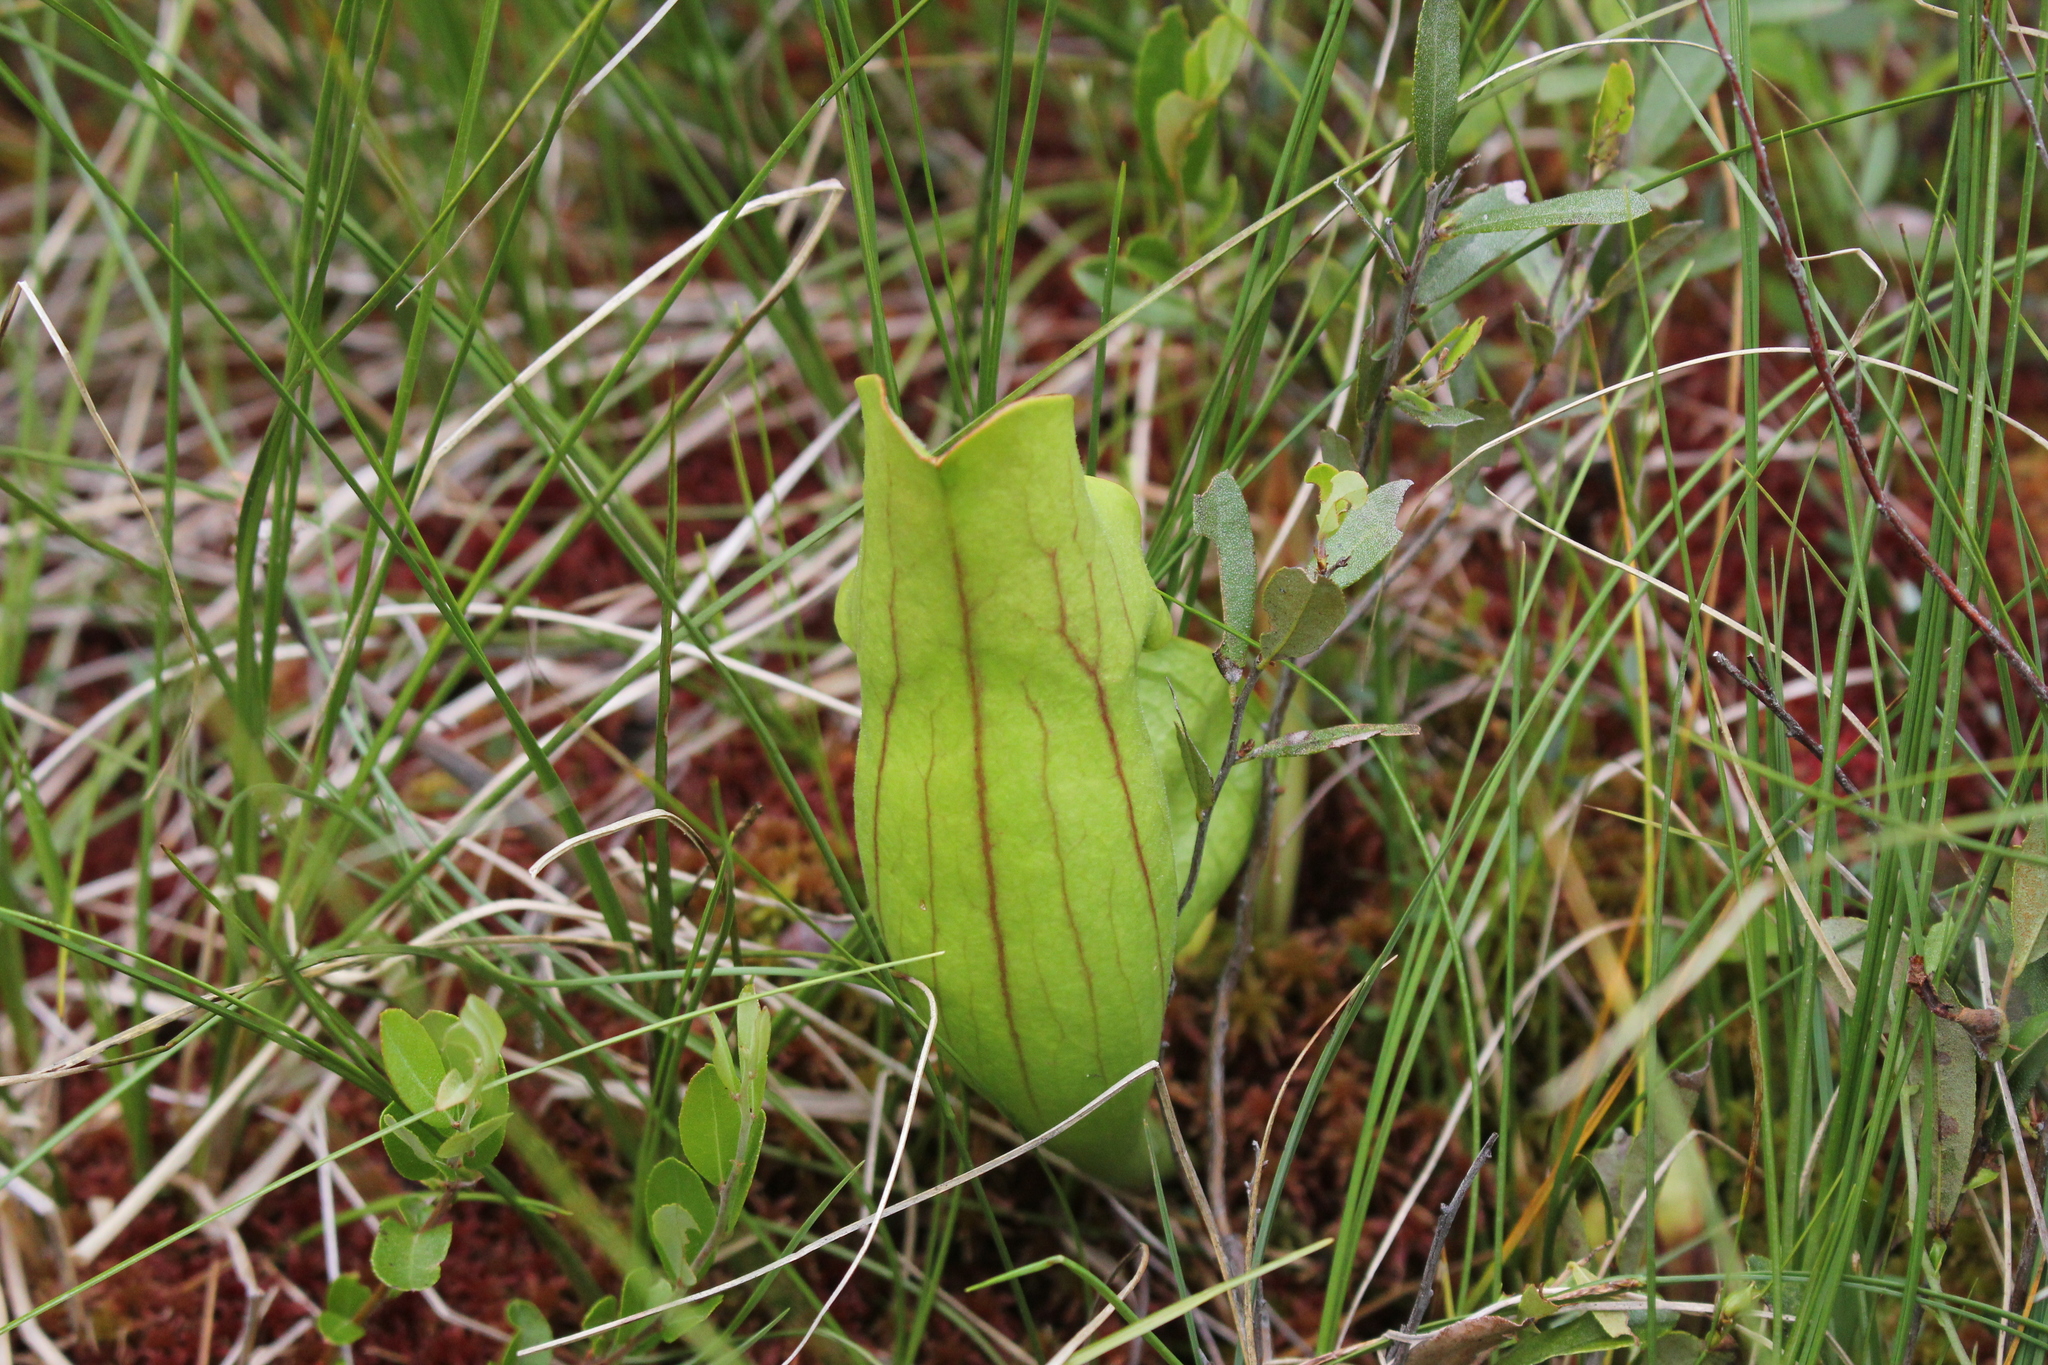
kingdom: Plantae
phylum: Tracheophyta
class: Magnoliopsida
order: Ericales
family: Sarraceniaceae
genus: Sarracenia
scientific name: Sarracenia purpurea
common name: Pitcherplant
